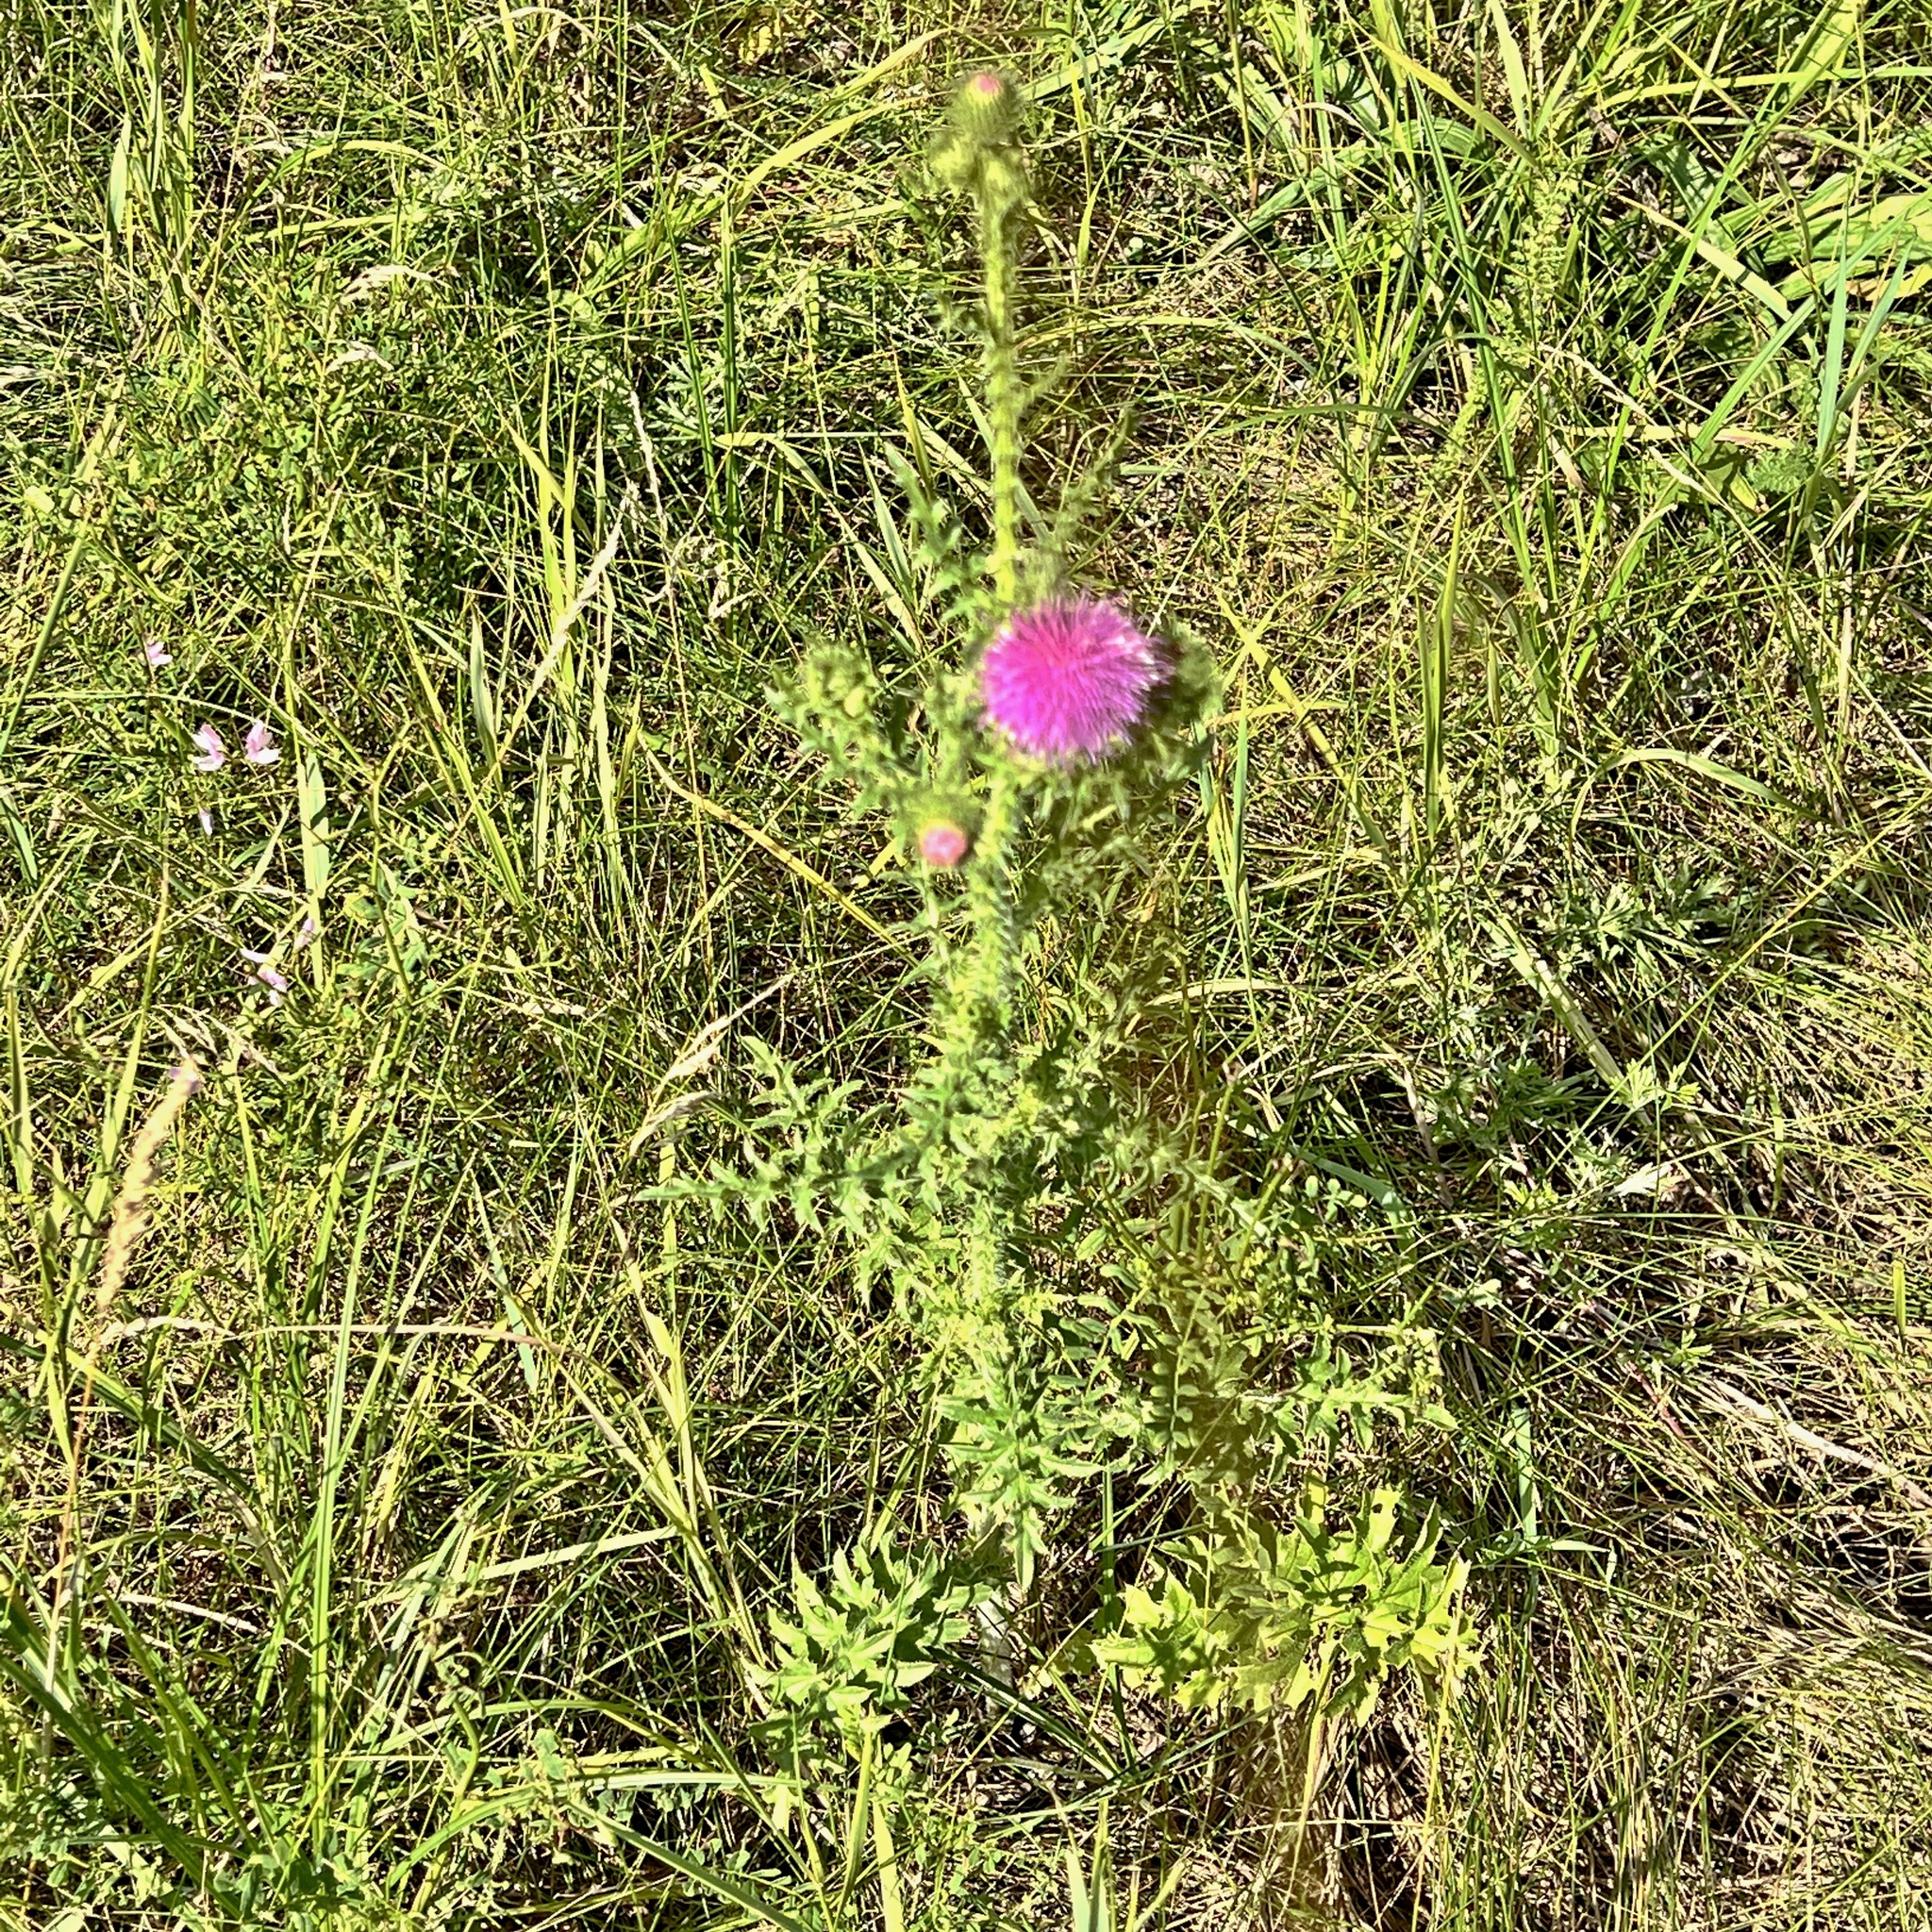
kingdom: Plantae
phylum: Tracheophyta
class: Magnoliopsida
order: Asterales
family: Asteraceae
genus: Carduus
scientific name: Carduus acanthoides
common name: Plumeless thistle
